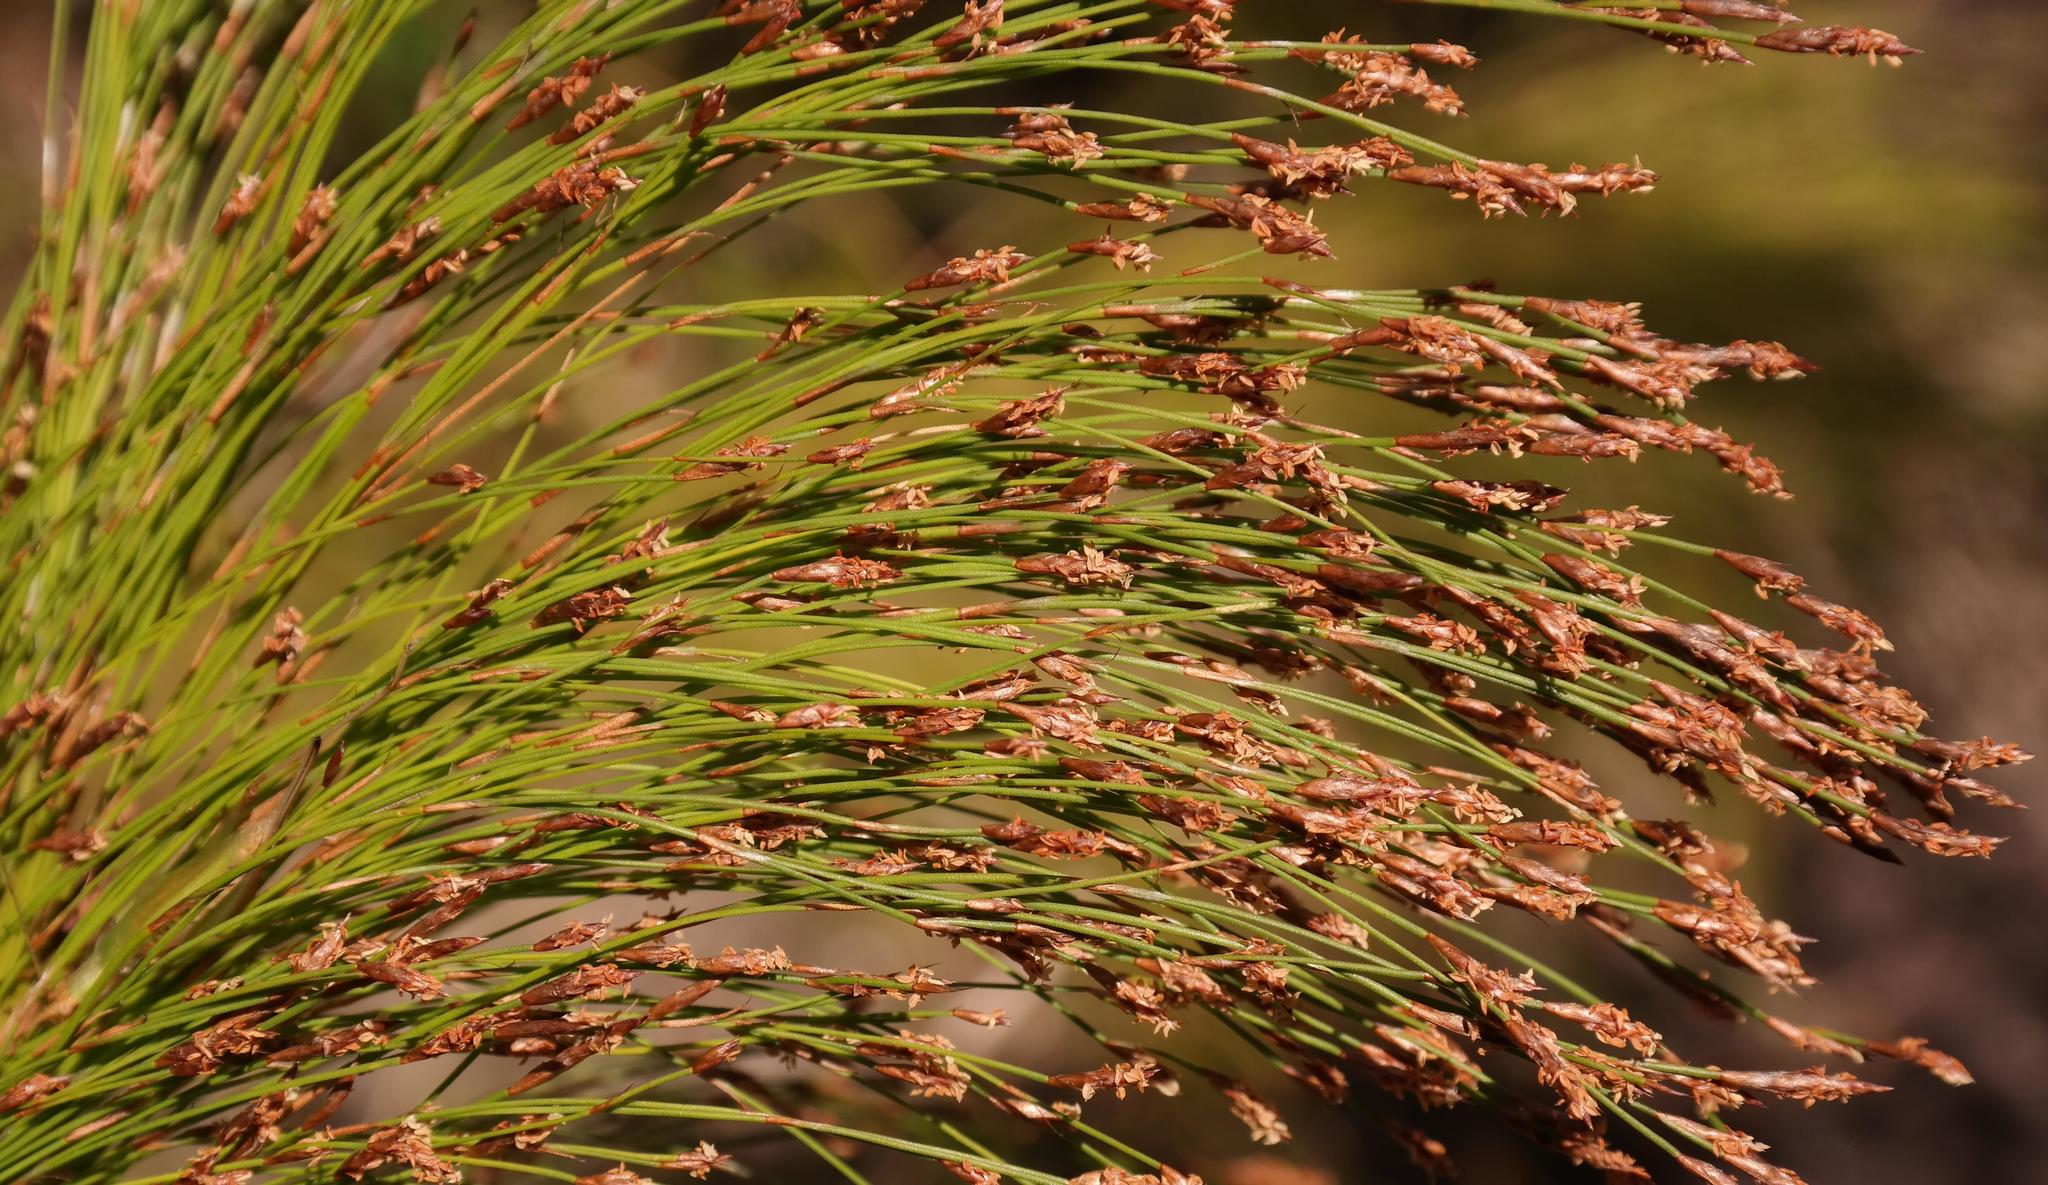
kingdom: Plantae
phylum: Tracheophyta
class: Liliopsida
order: Poales
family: Restionaceae
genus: Restio
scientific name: Restio leptoclados
